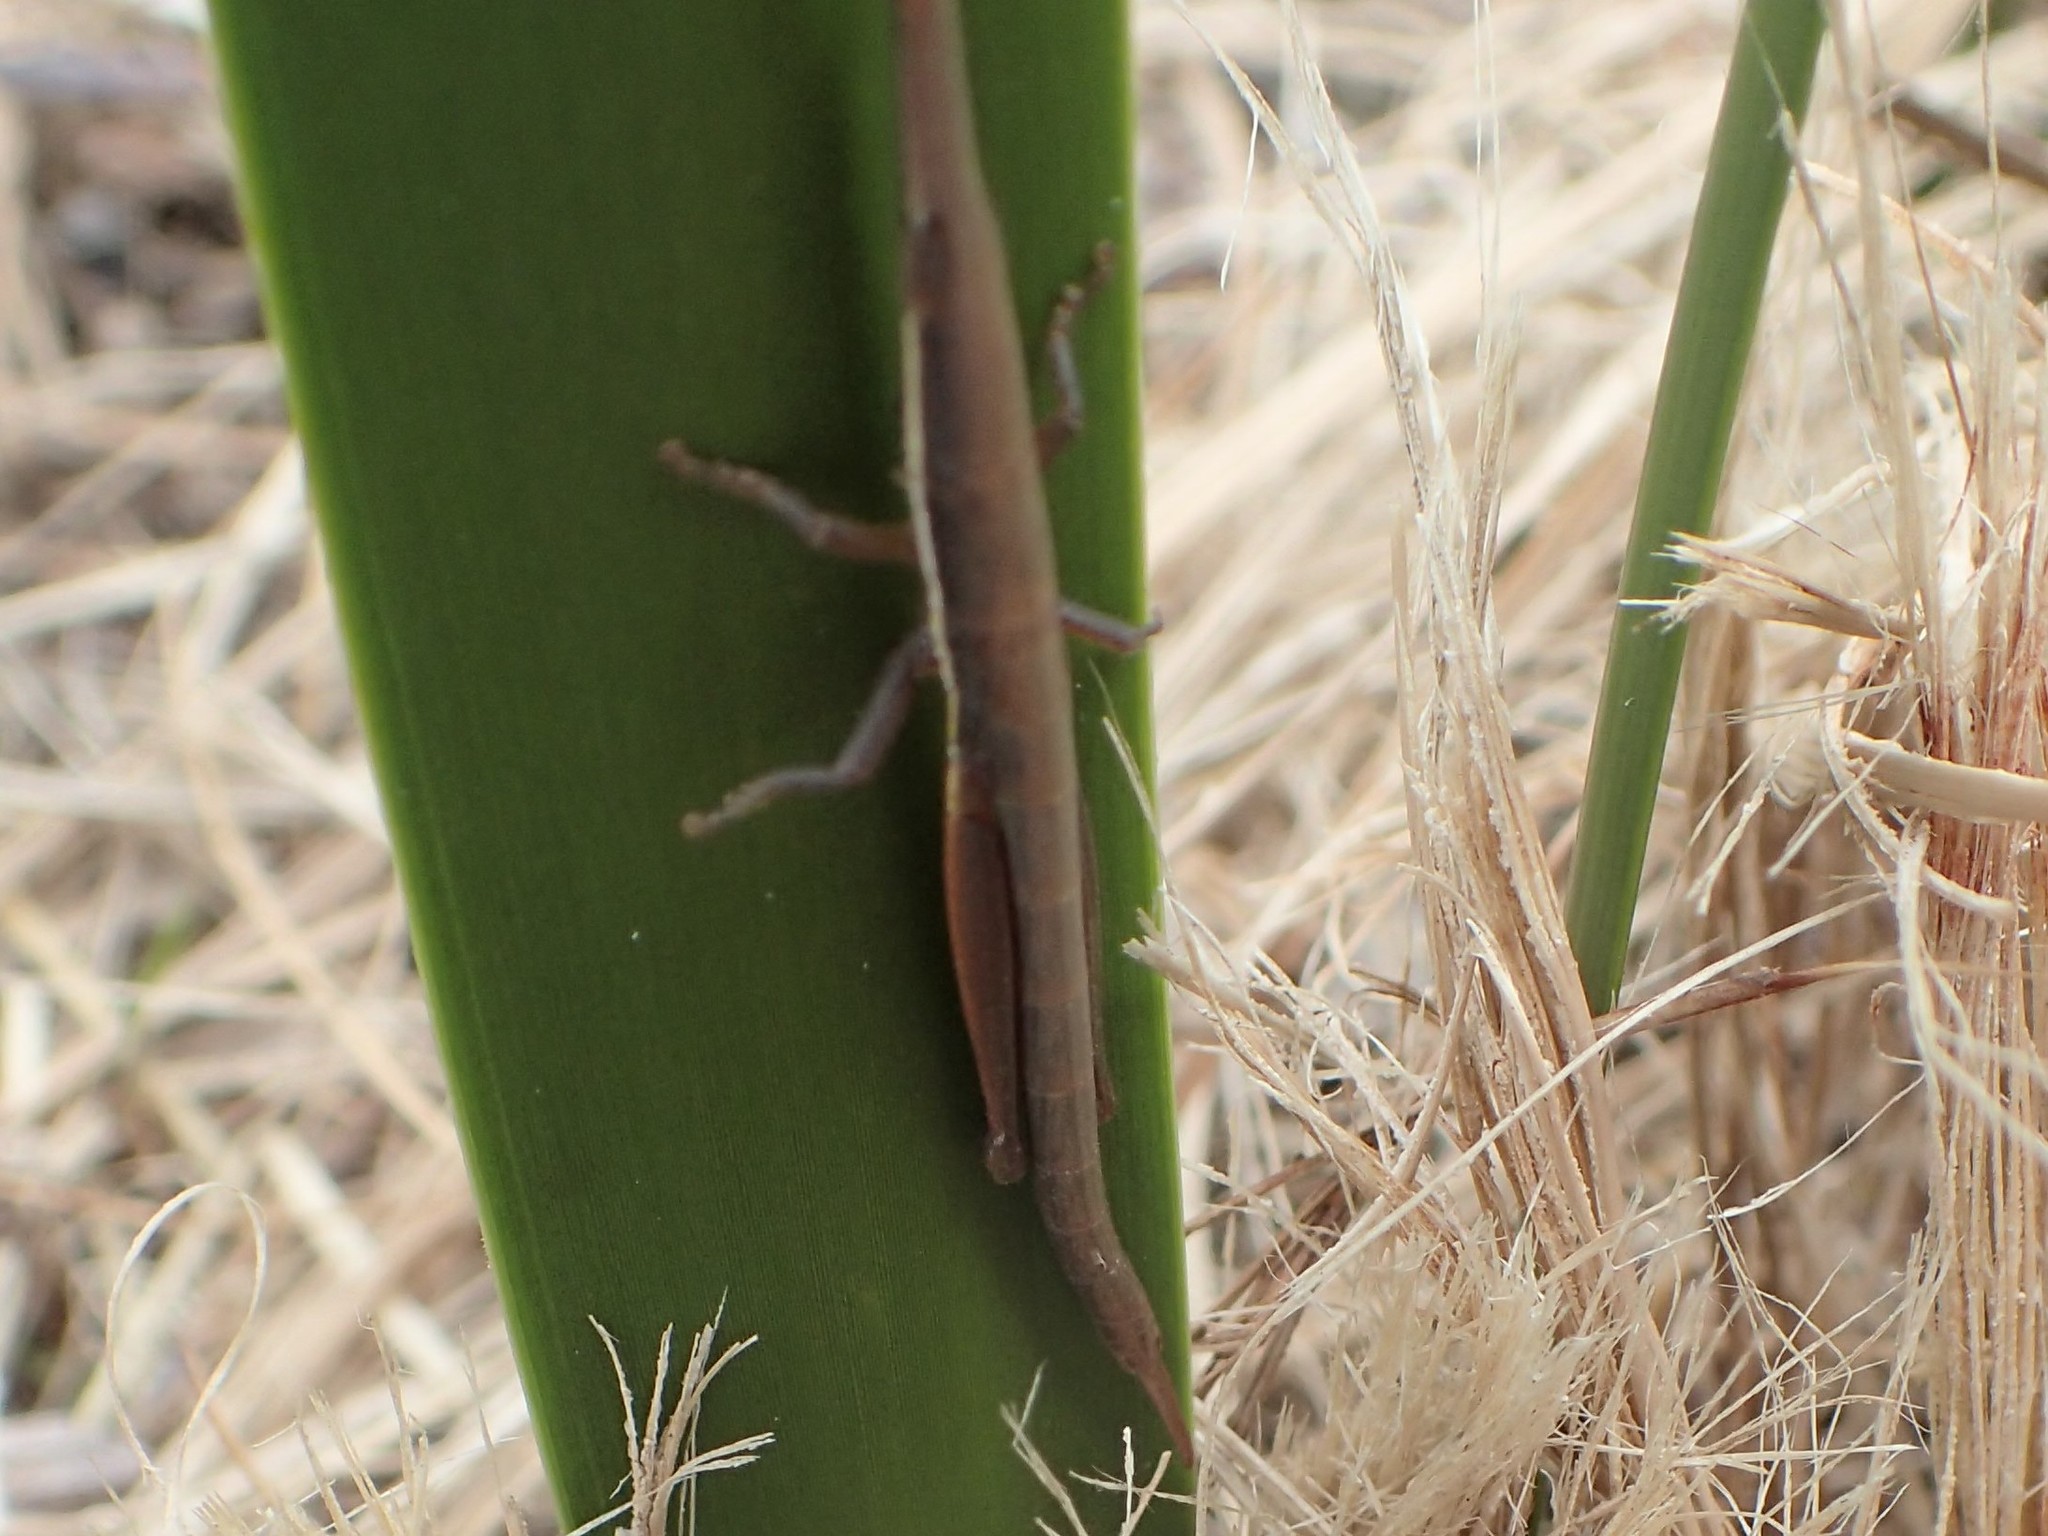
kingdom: Animalia
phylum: Arthropoda
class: Insecta
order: Orthoptera
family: Pyrgomorphidae
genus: Psednura
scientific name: Psednura pedestris
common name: Common psednura
